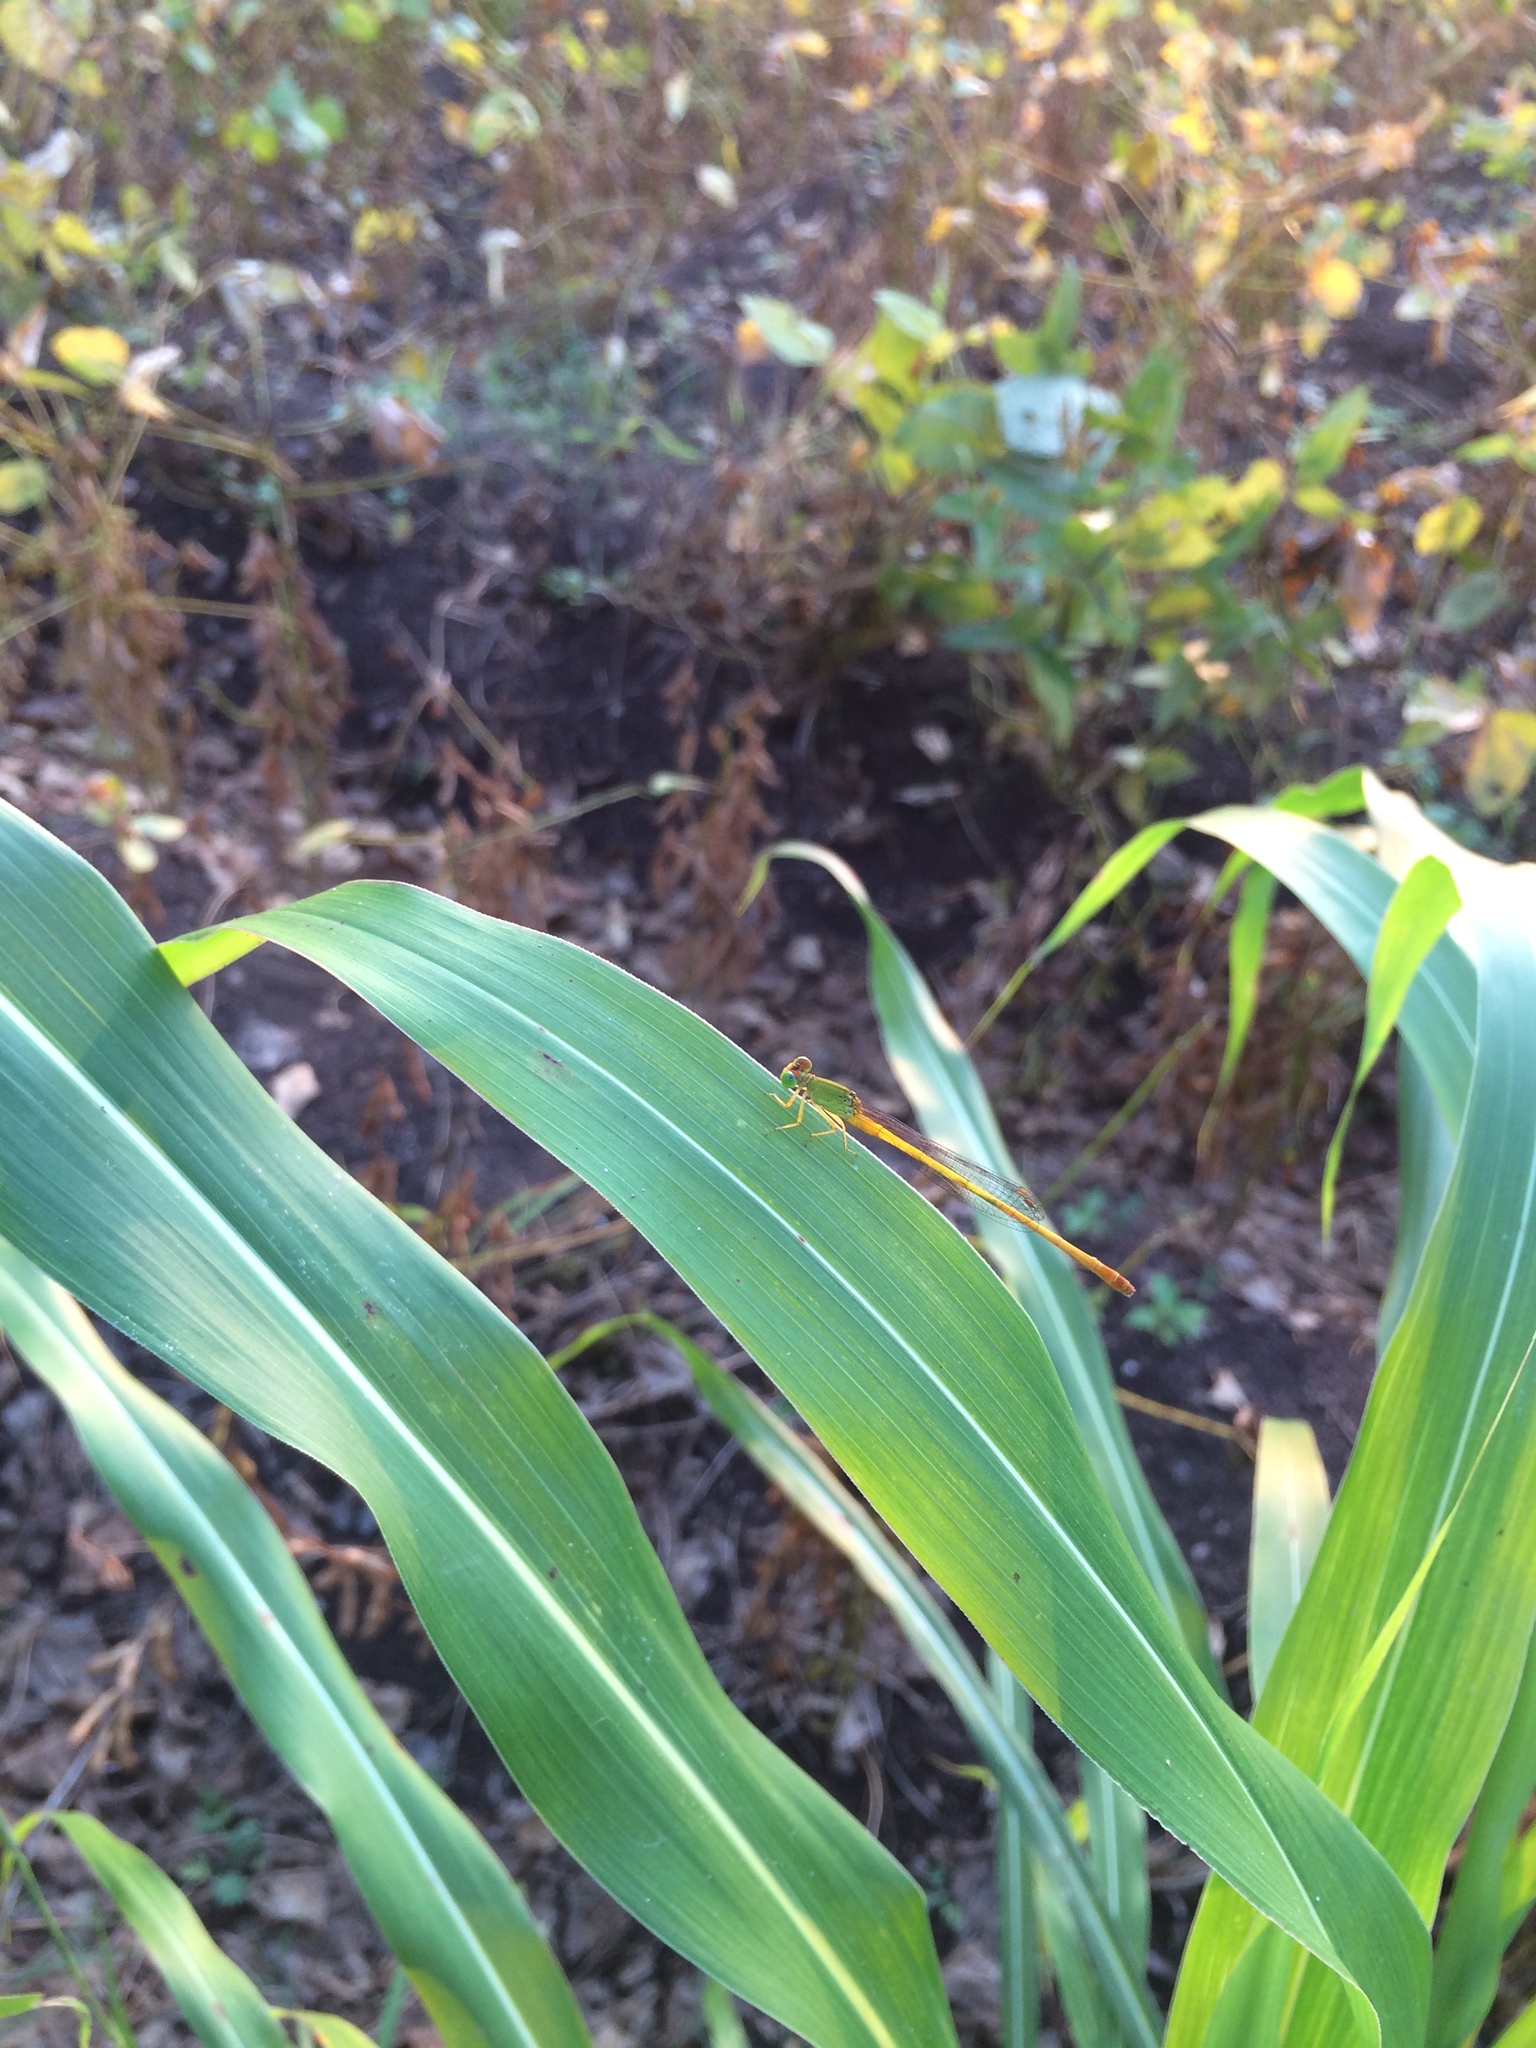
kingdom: Animalia
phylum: Arthropoda
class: Insecta
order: Odonata
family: Coenagrionidae
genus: Ceriagrion
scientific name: Ceriagrion coromandelianum
